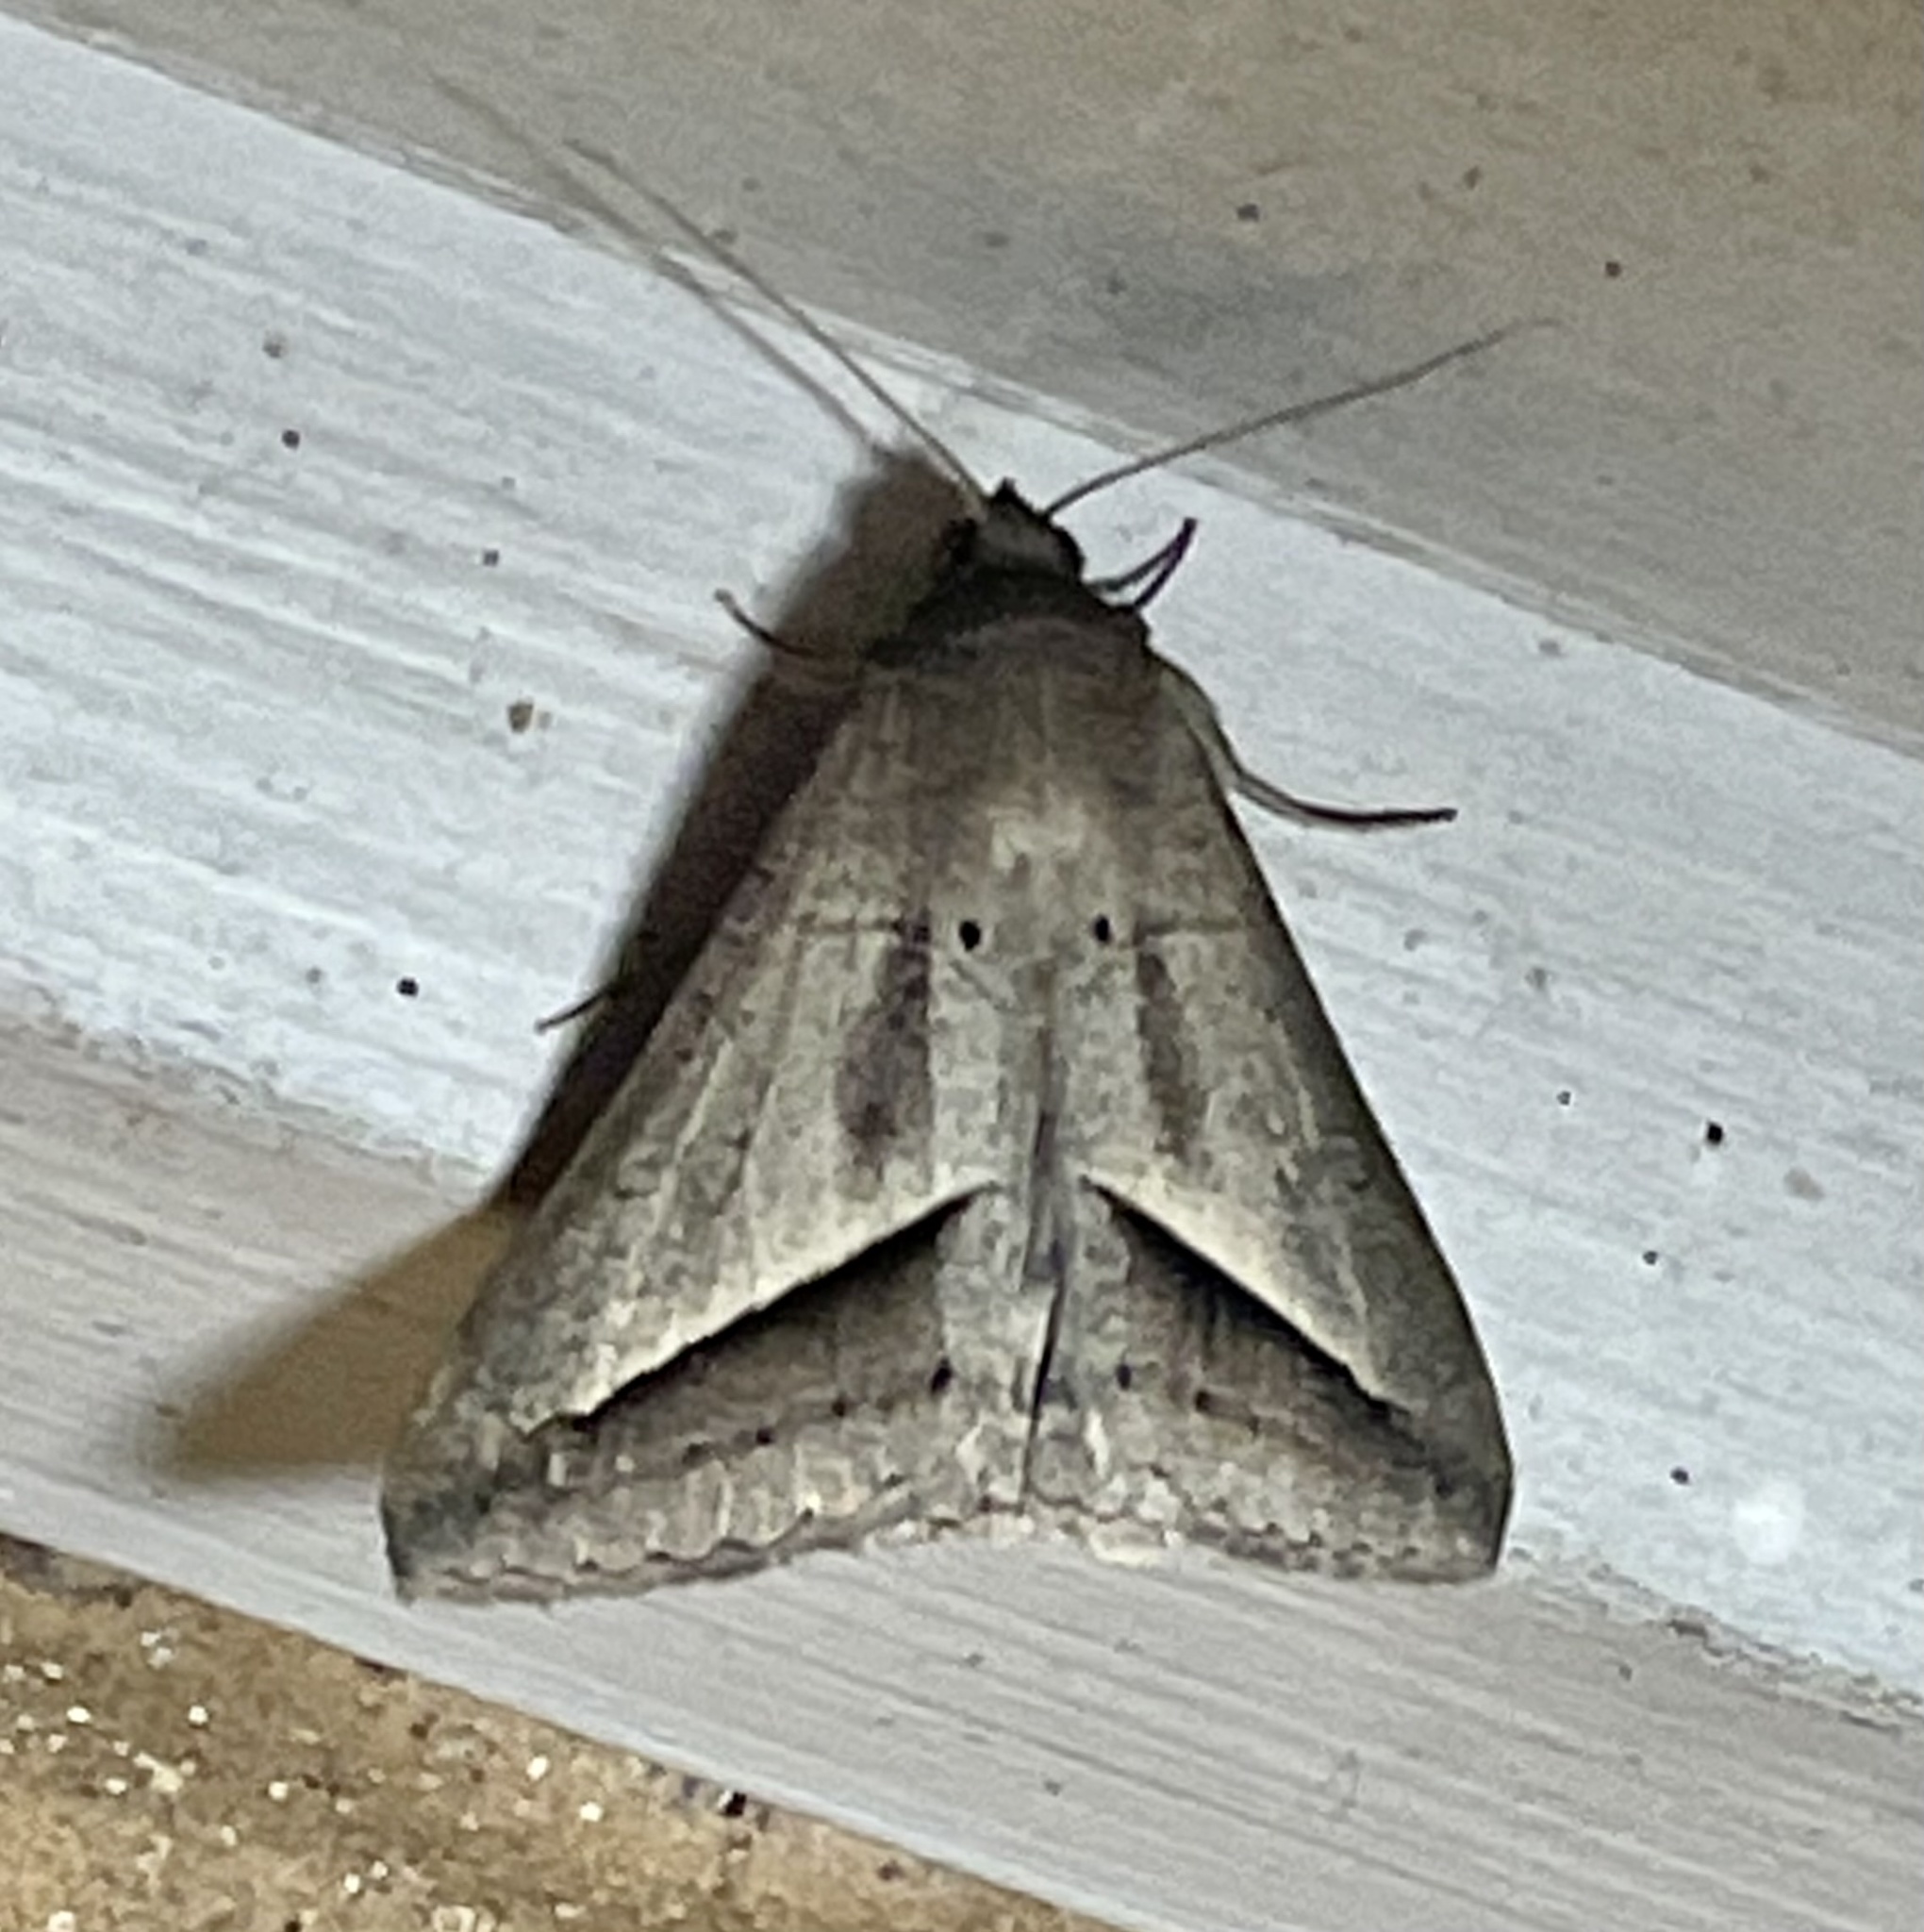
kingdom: Animalia
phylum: Arthropoda
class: Insecta
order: Lepidoptera
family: Erebidae
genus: Mocis
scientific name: Mocis frugalis
